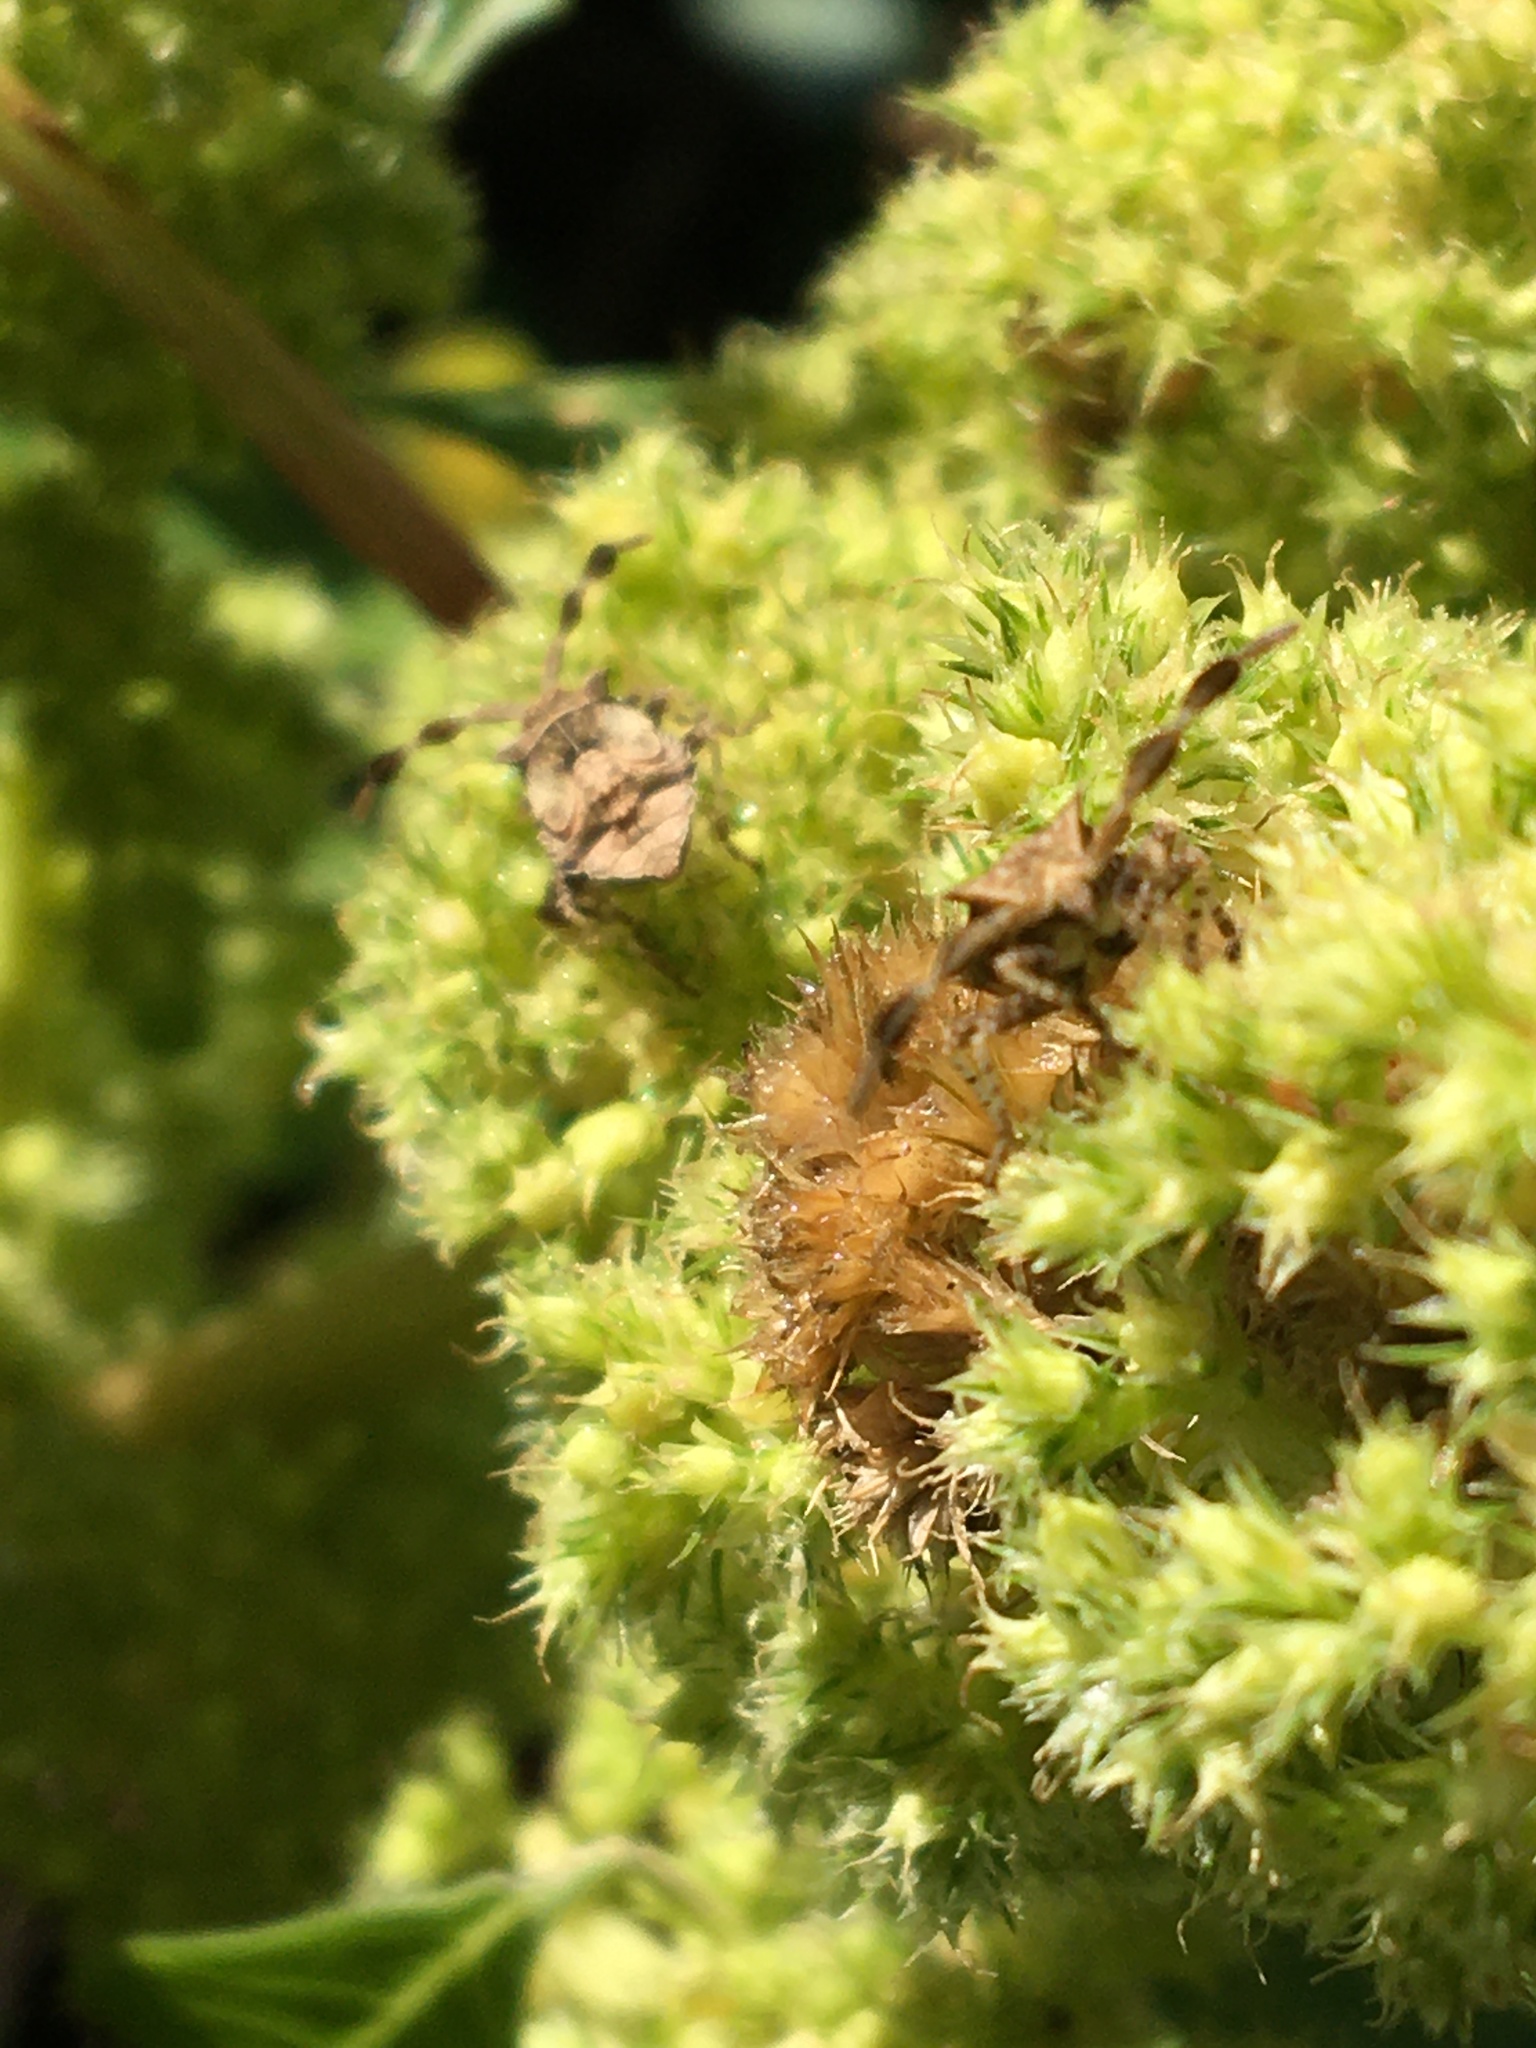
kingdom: Animalia
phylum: Arthropoda
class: Insecta
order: Hemiptera
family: Coreidae
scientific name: Coreidae
